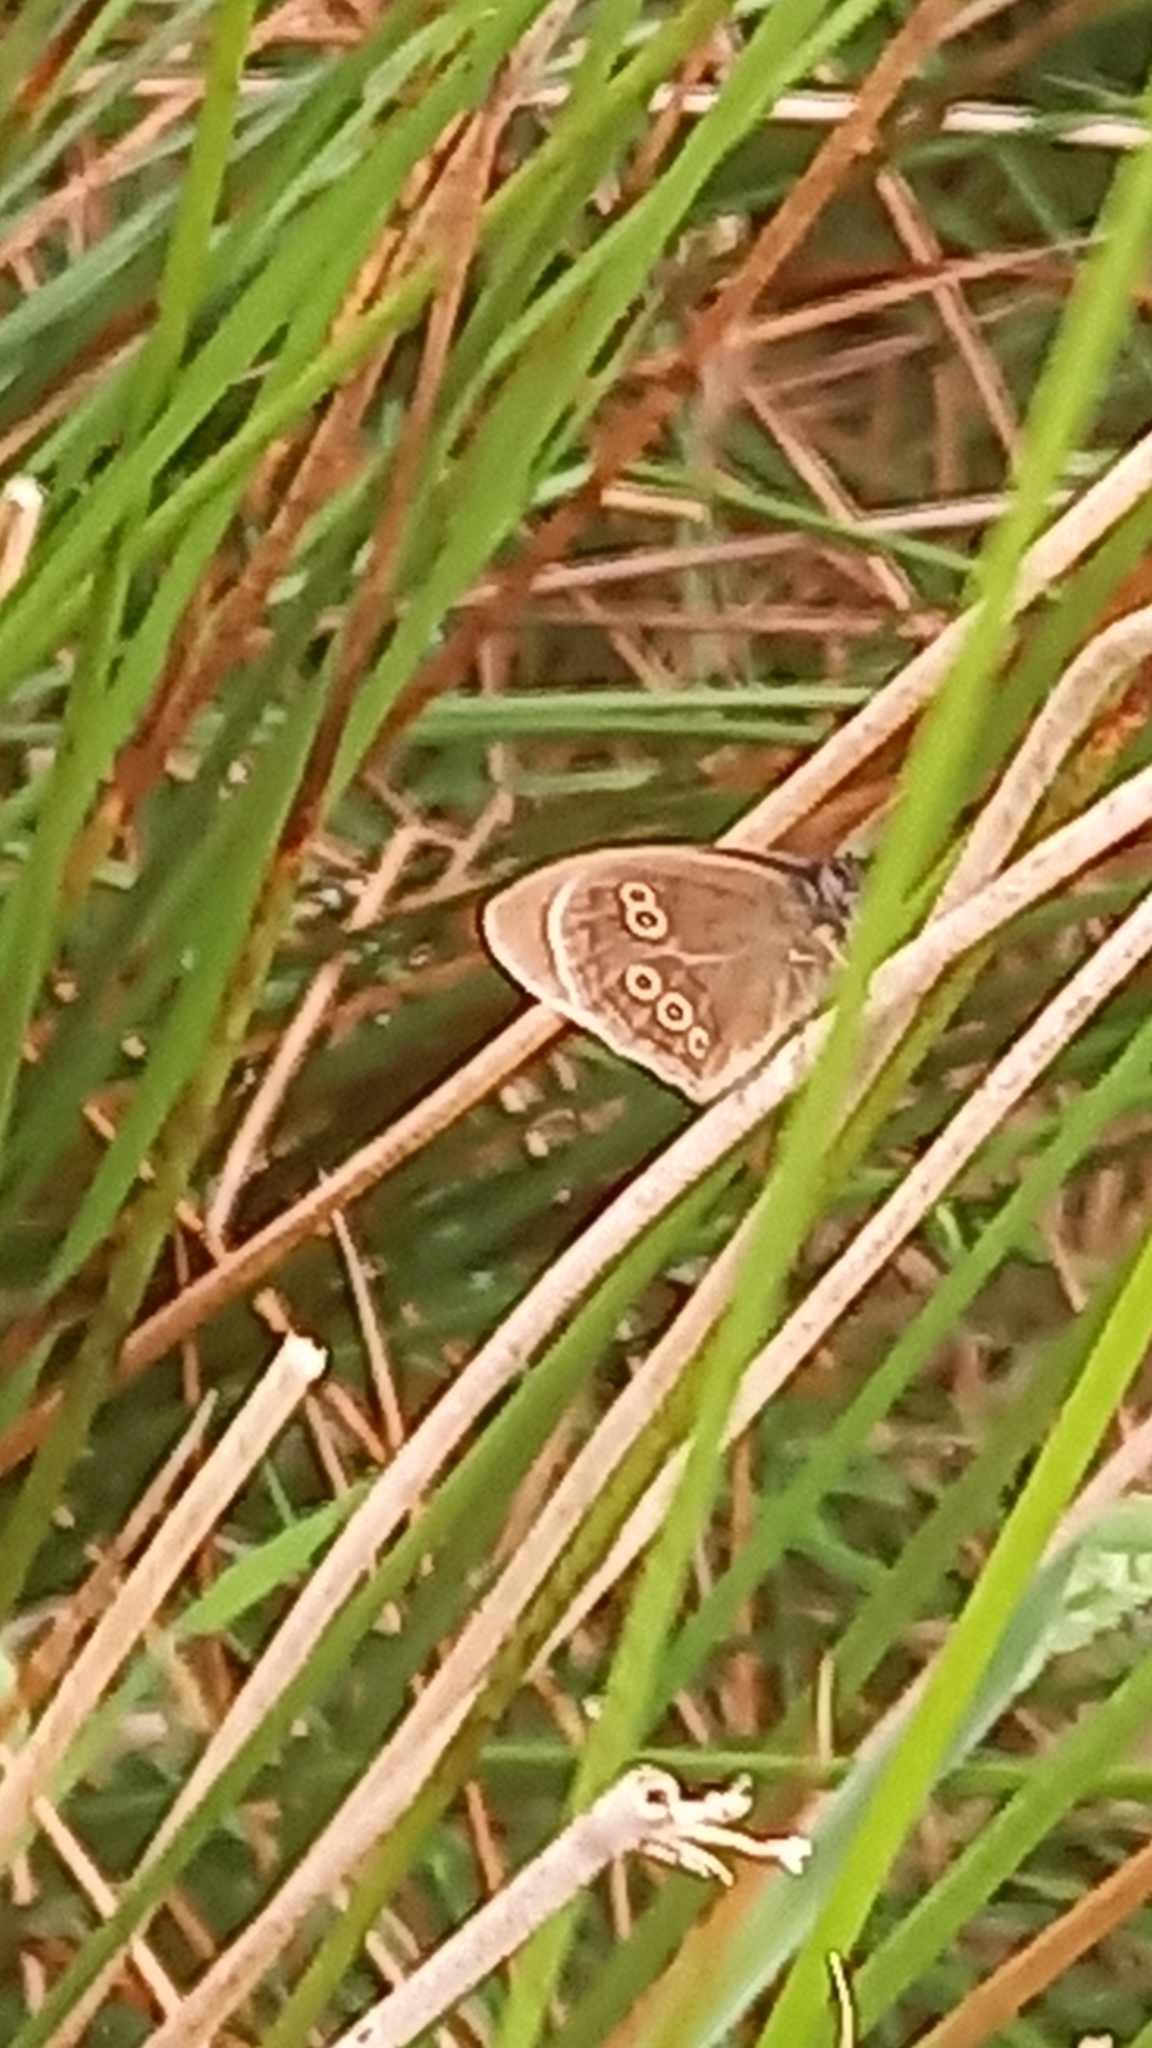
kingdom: Animalia
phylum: Arthropoda
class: Insecta
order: Lepidoptera
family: Nymphalidae
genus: Aphantopus
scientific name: Aphantopus hyperantus
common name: Ringlet
